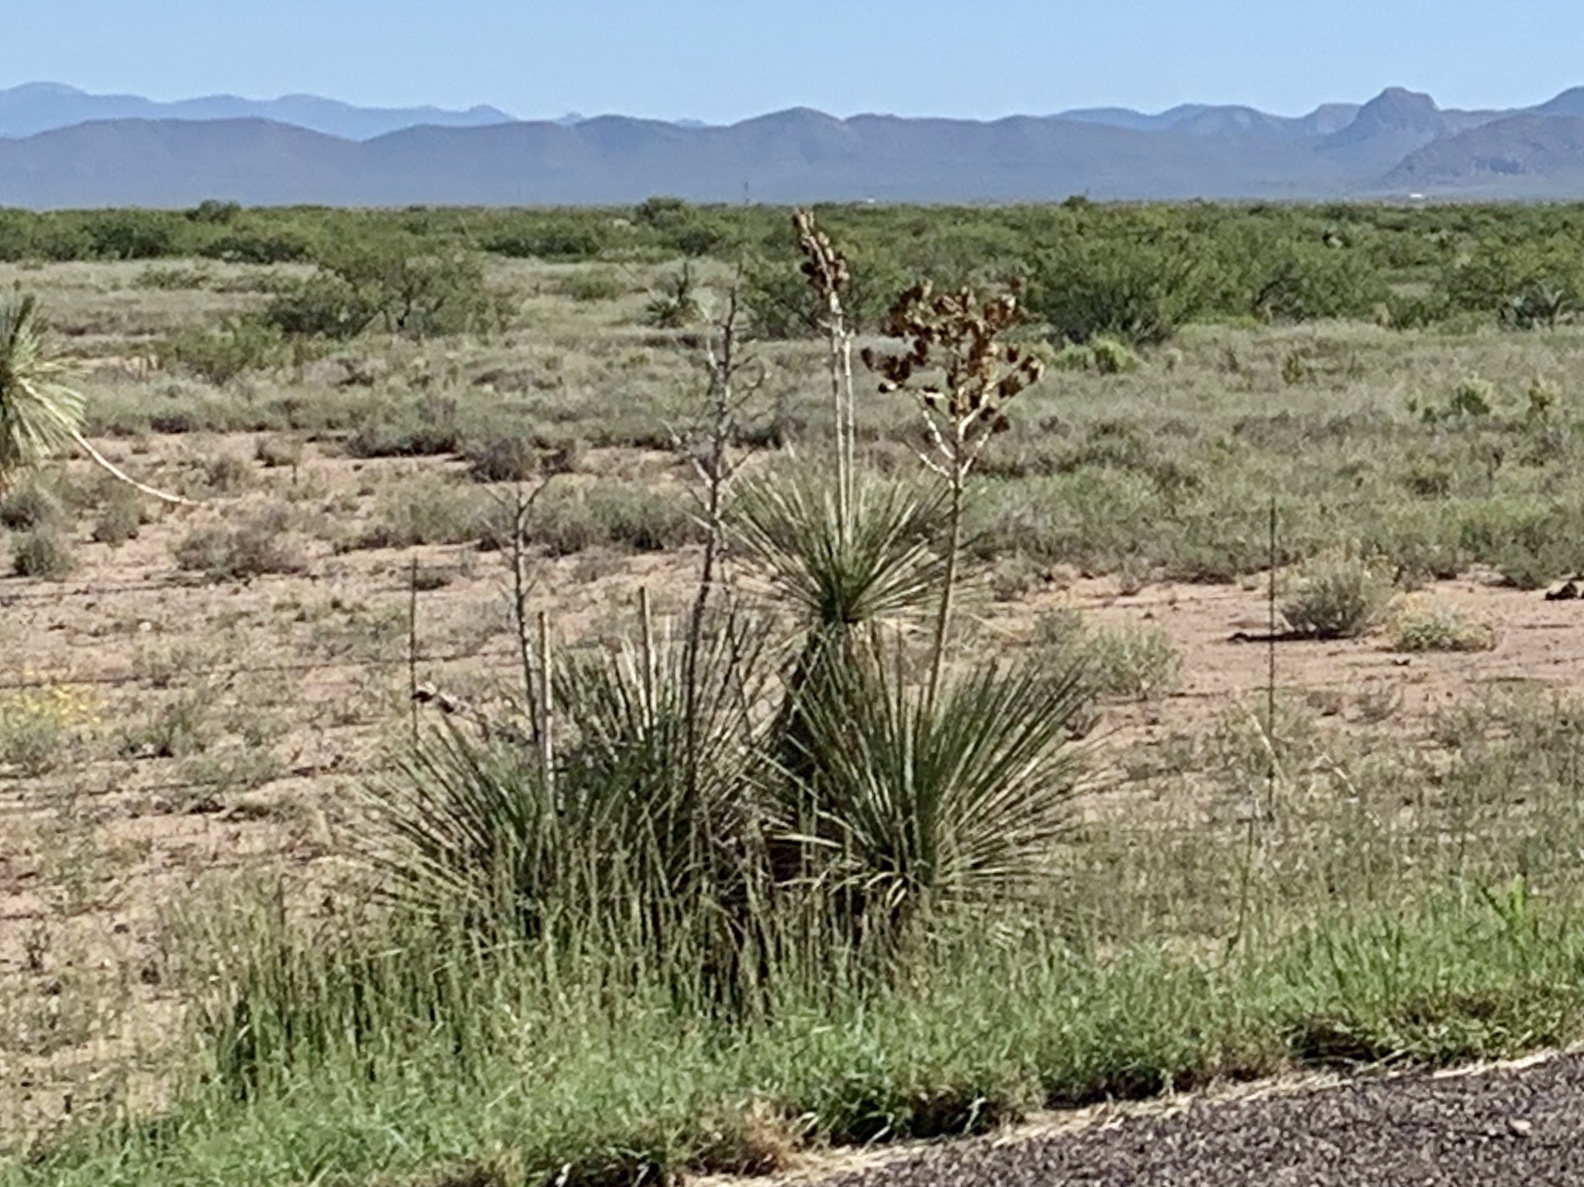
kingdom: Plantae
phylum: Tracheophyta
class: Liliopsida
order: Asparagales
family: Asparagaceae
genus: Yucca
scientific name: Yucca elata
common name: Palmella
